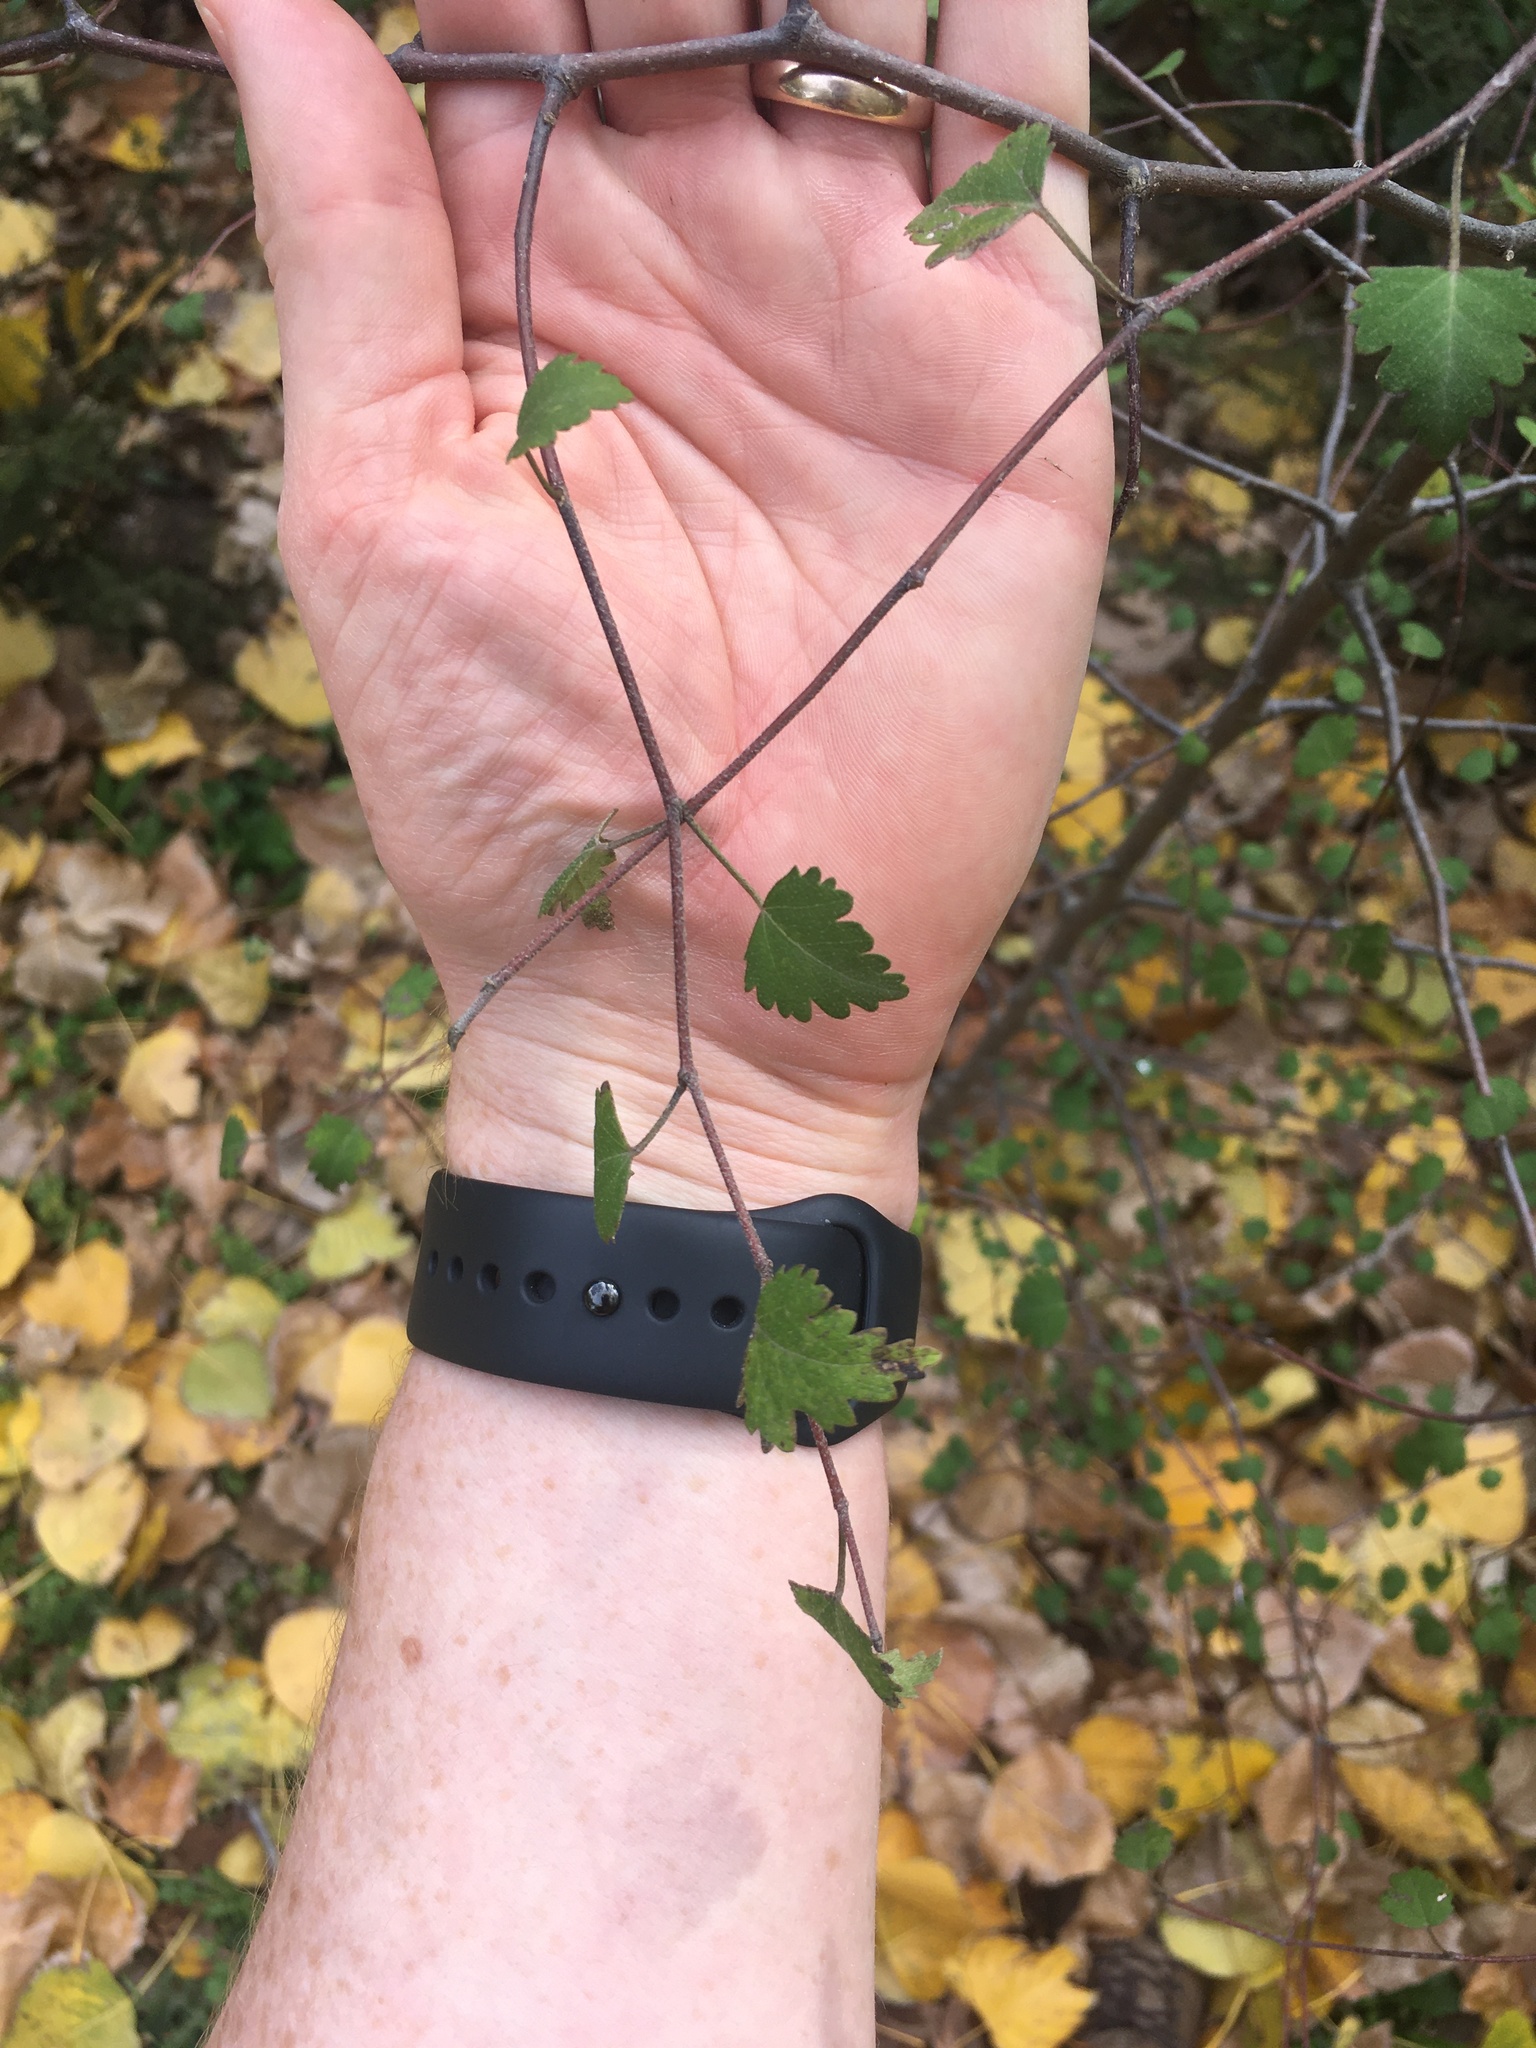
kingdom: Plantae
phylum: Tracheophyta
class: Magnoliopsida
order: Malvales
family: Malvaceae
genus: Plagianthus
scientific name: Plagianthus regius
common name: Manatu
